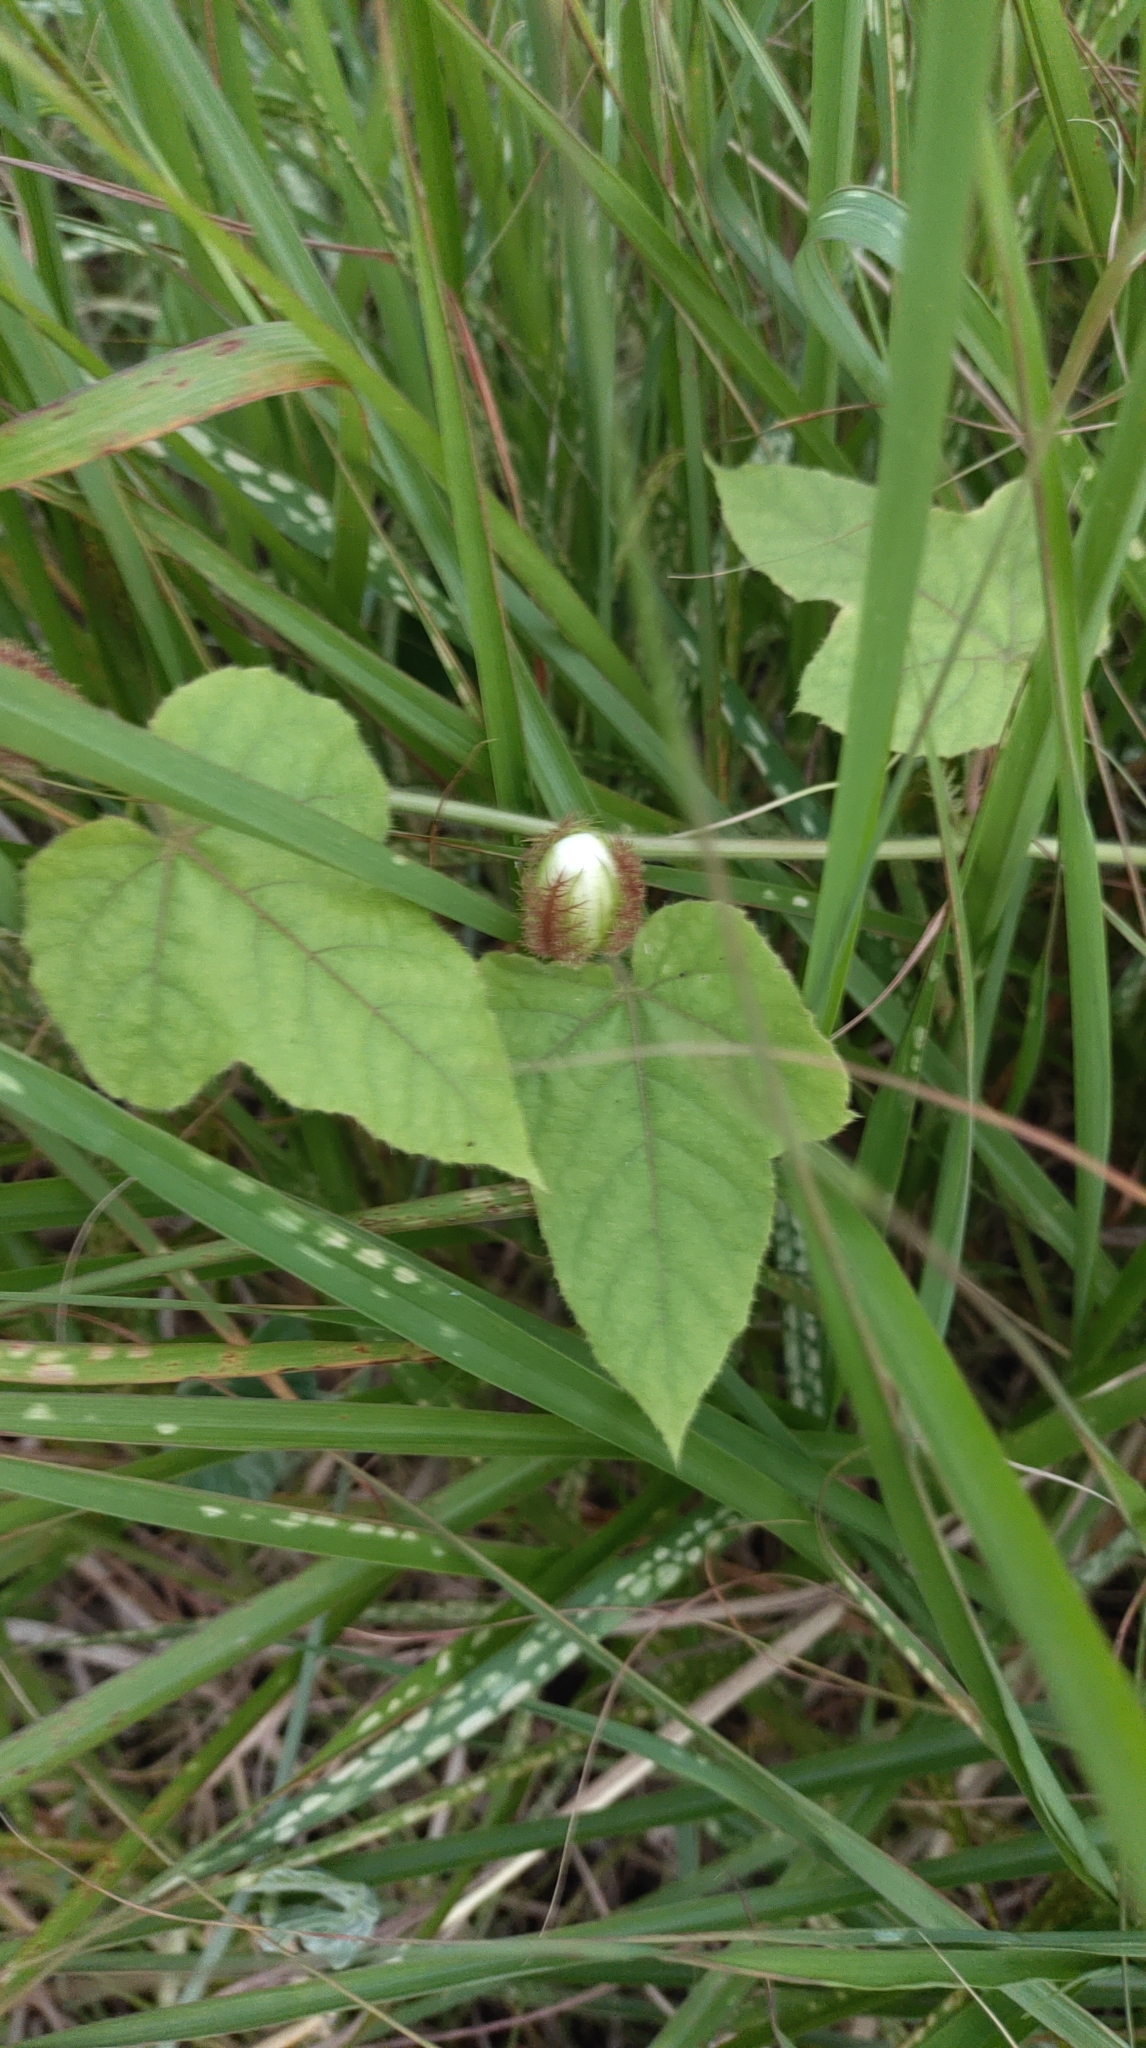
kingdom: Plantae
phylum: Tracheophyta
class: Magnoliopsida
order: Malpighiales
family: Passifloraceae
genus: Passiflora
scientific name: Passiflora vesicaria
